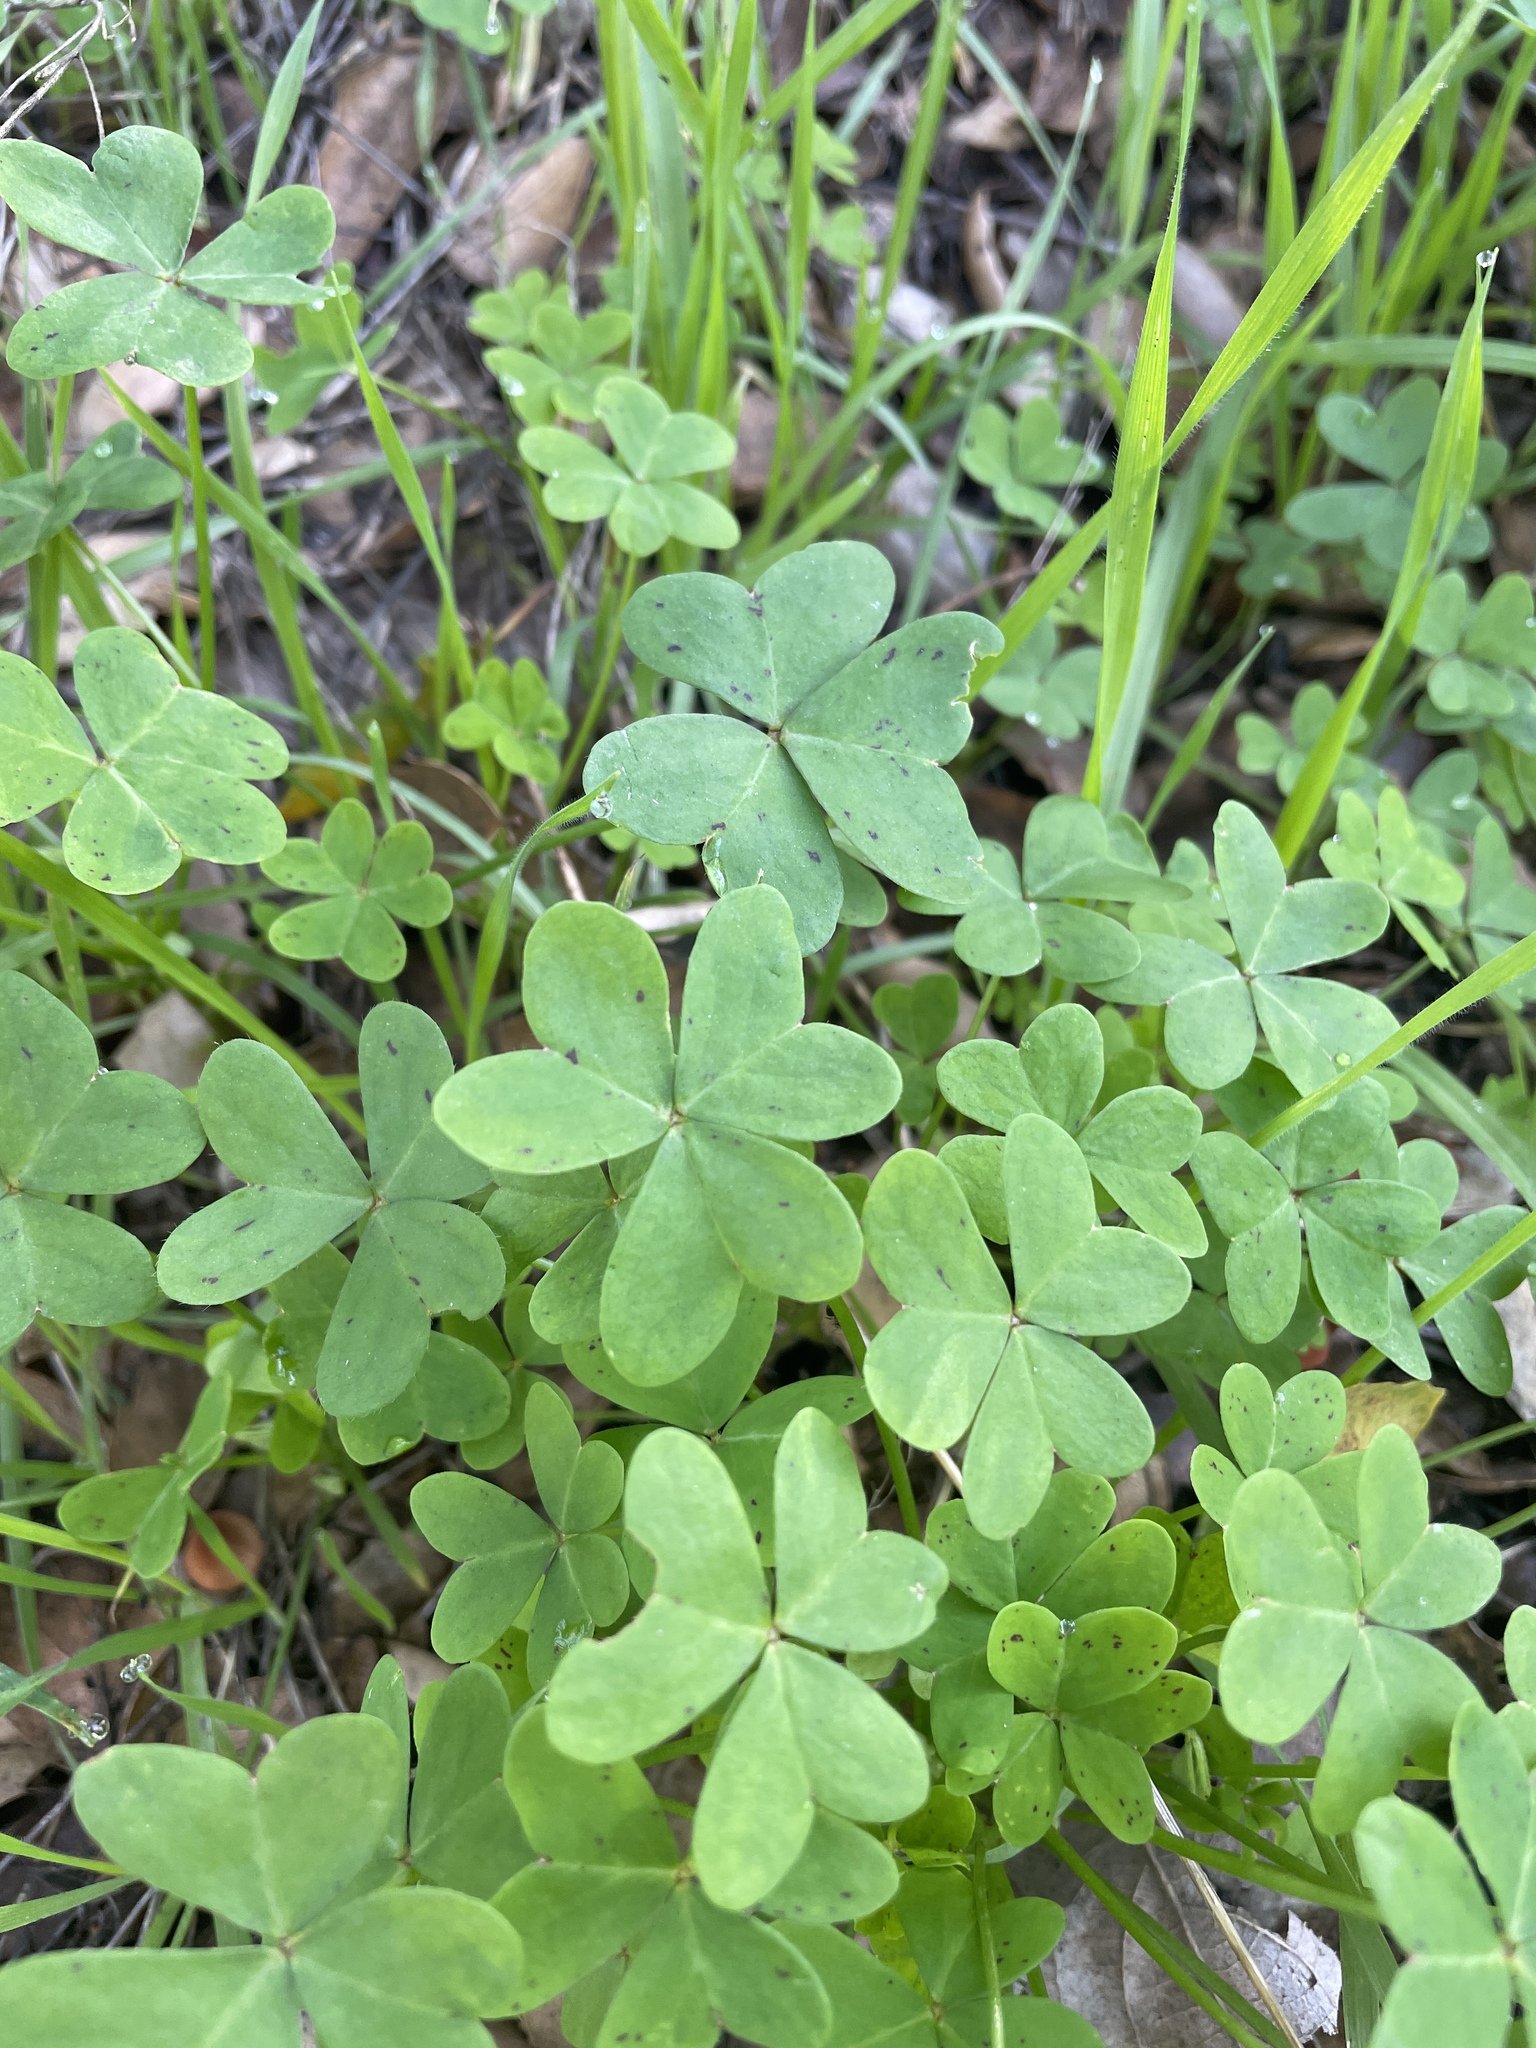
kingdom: Plantae
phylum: Tracheophyta
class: Magnoliopsida
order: Oxalidales
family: Oxalidaceae
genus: Oxalis
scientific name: Oxalis pes-caprae
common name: Bermuda-buttercup
